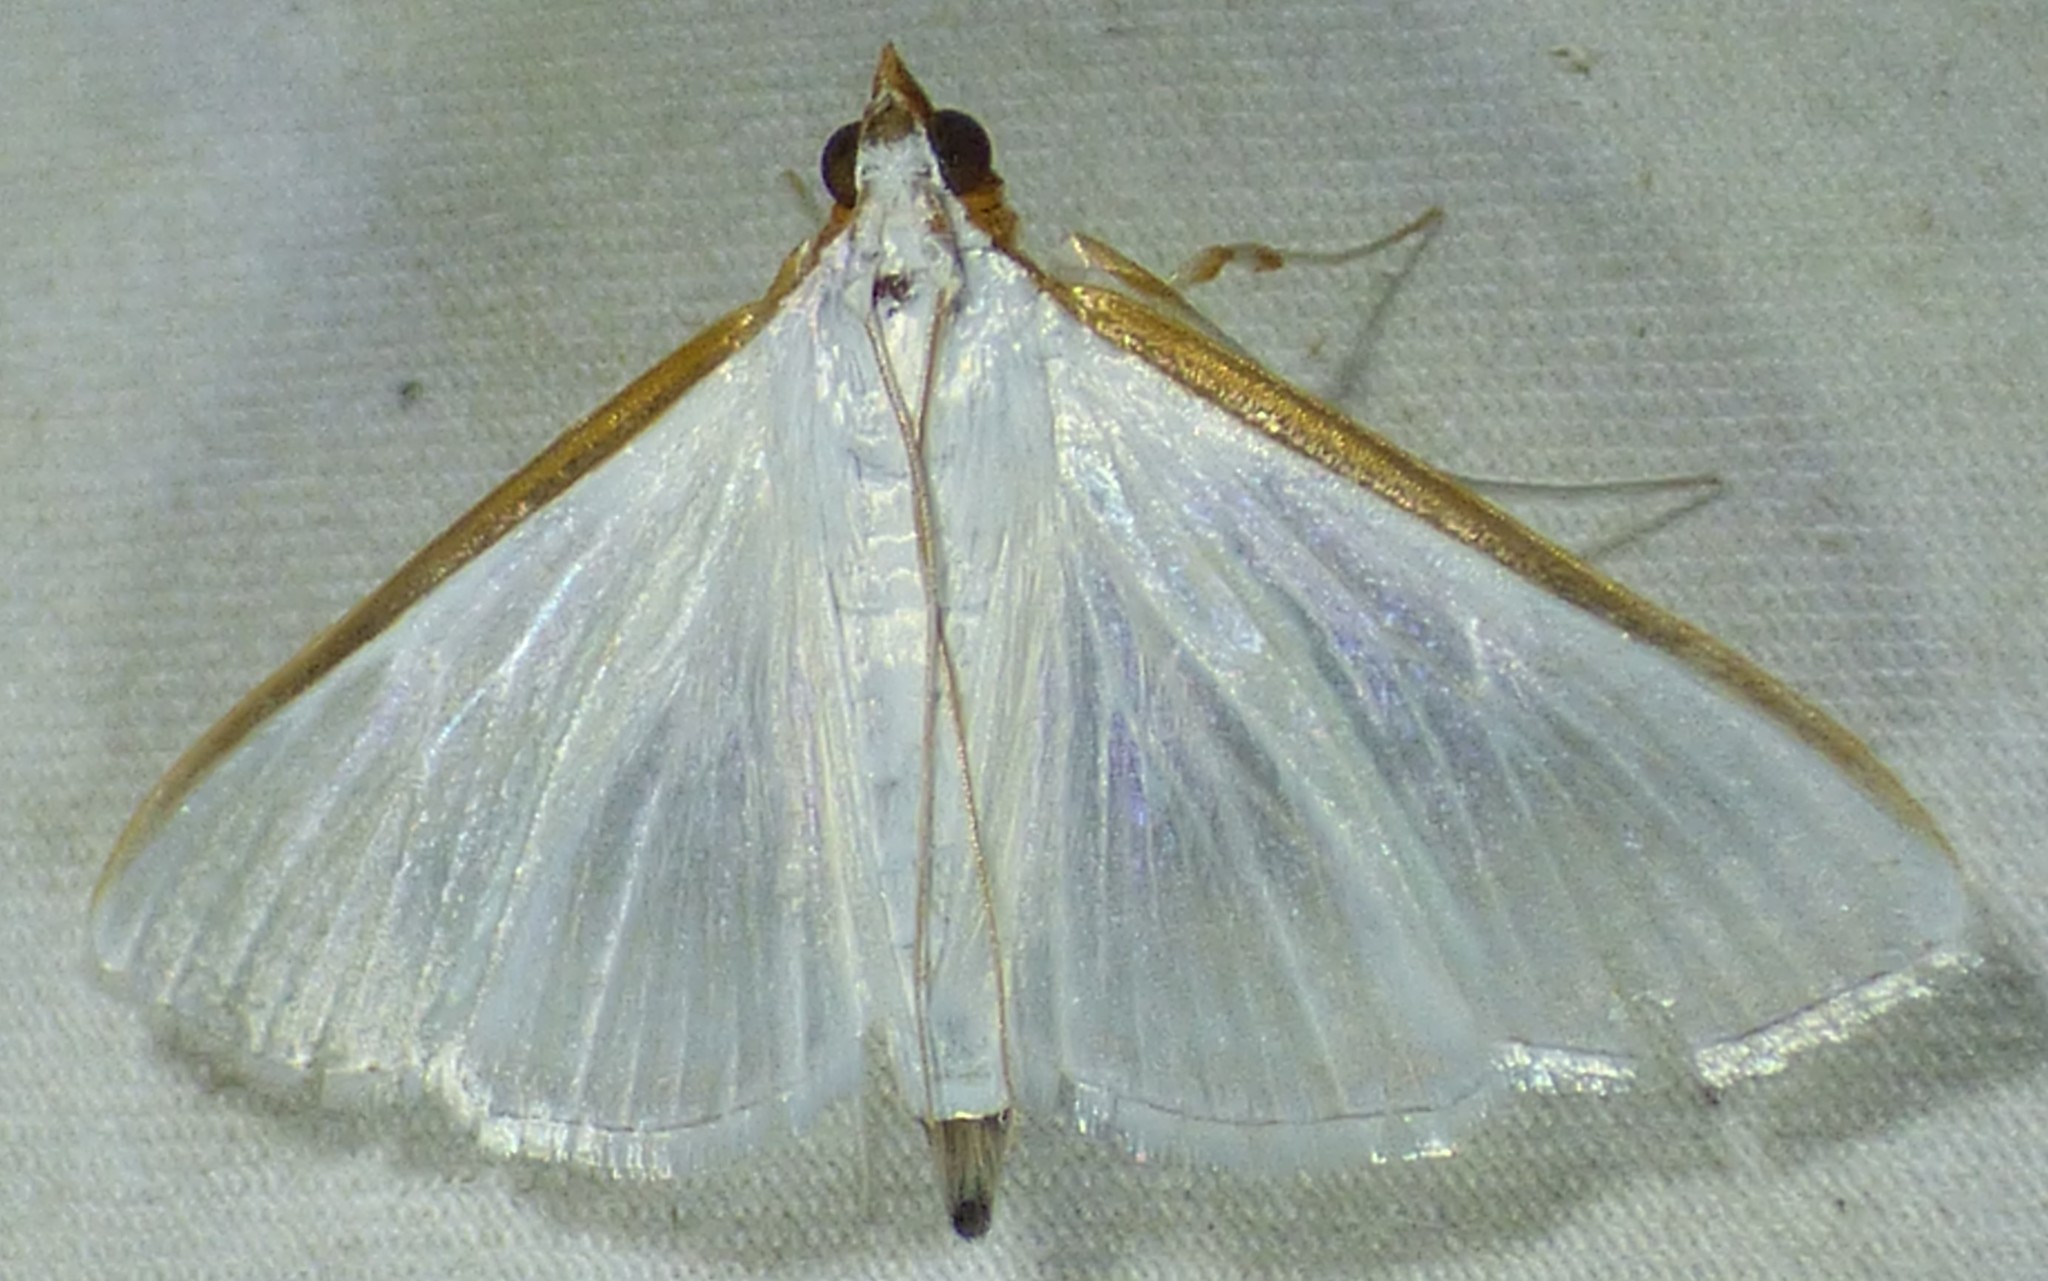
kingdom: Animalia
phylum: Arthropoda
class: Insecta
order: Lepidoptera
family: Crambidae
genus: Diaphania
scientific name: Diaphania costata
